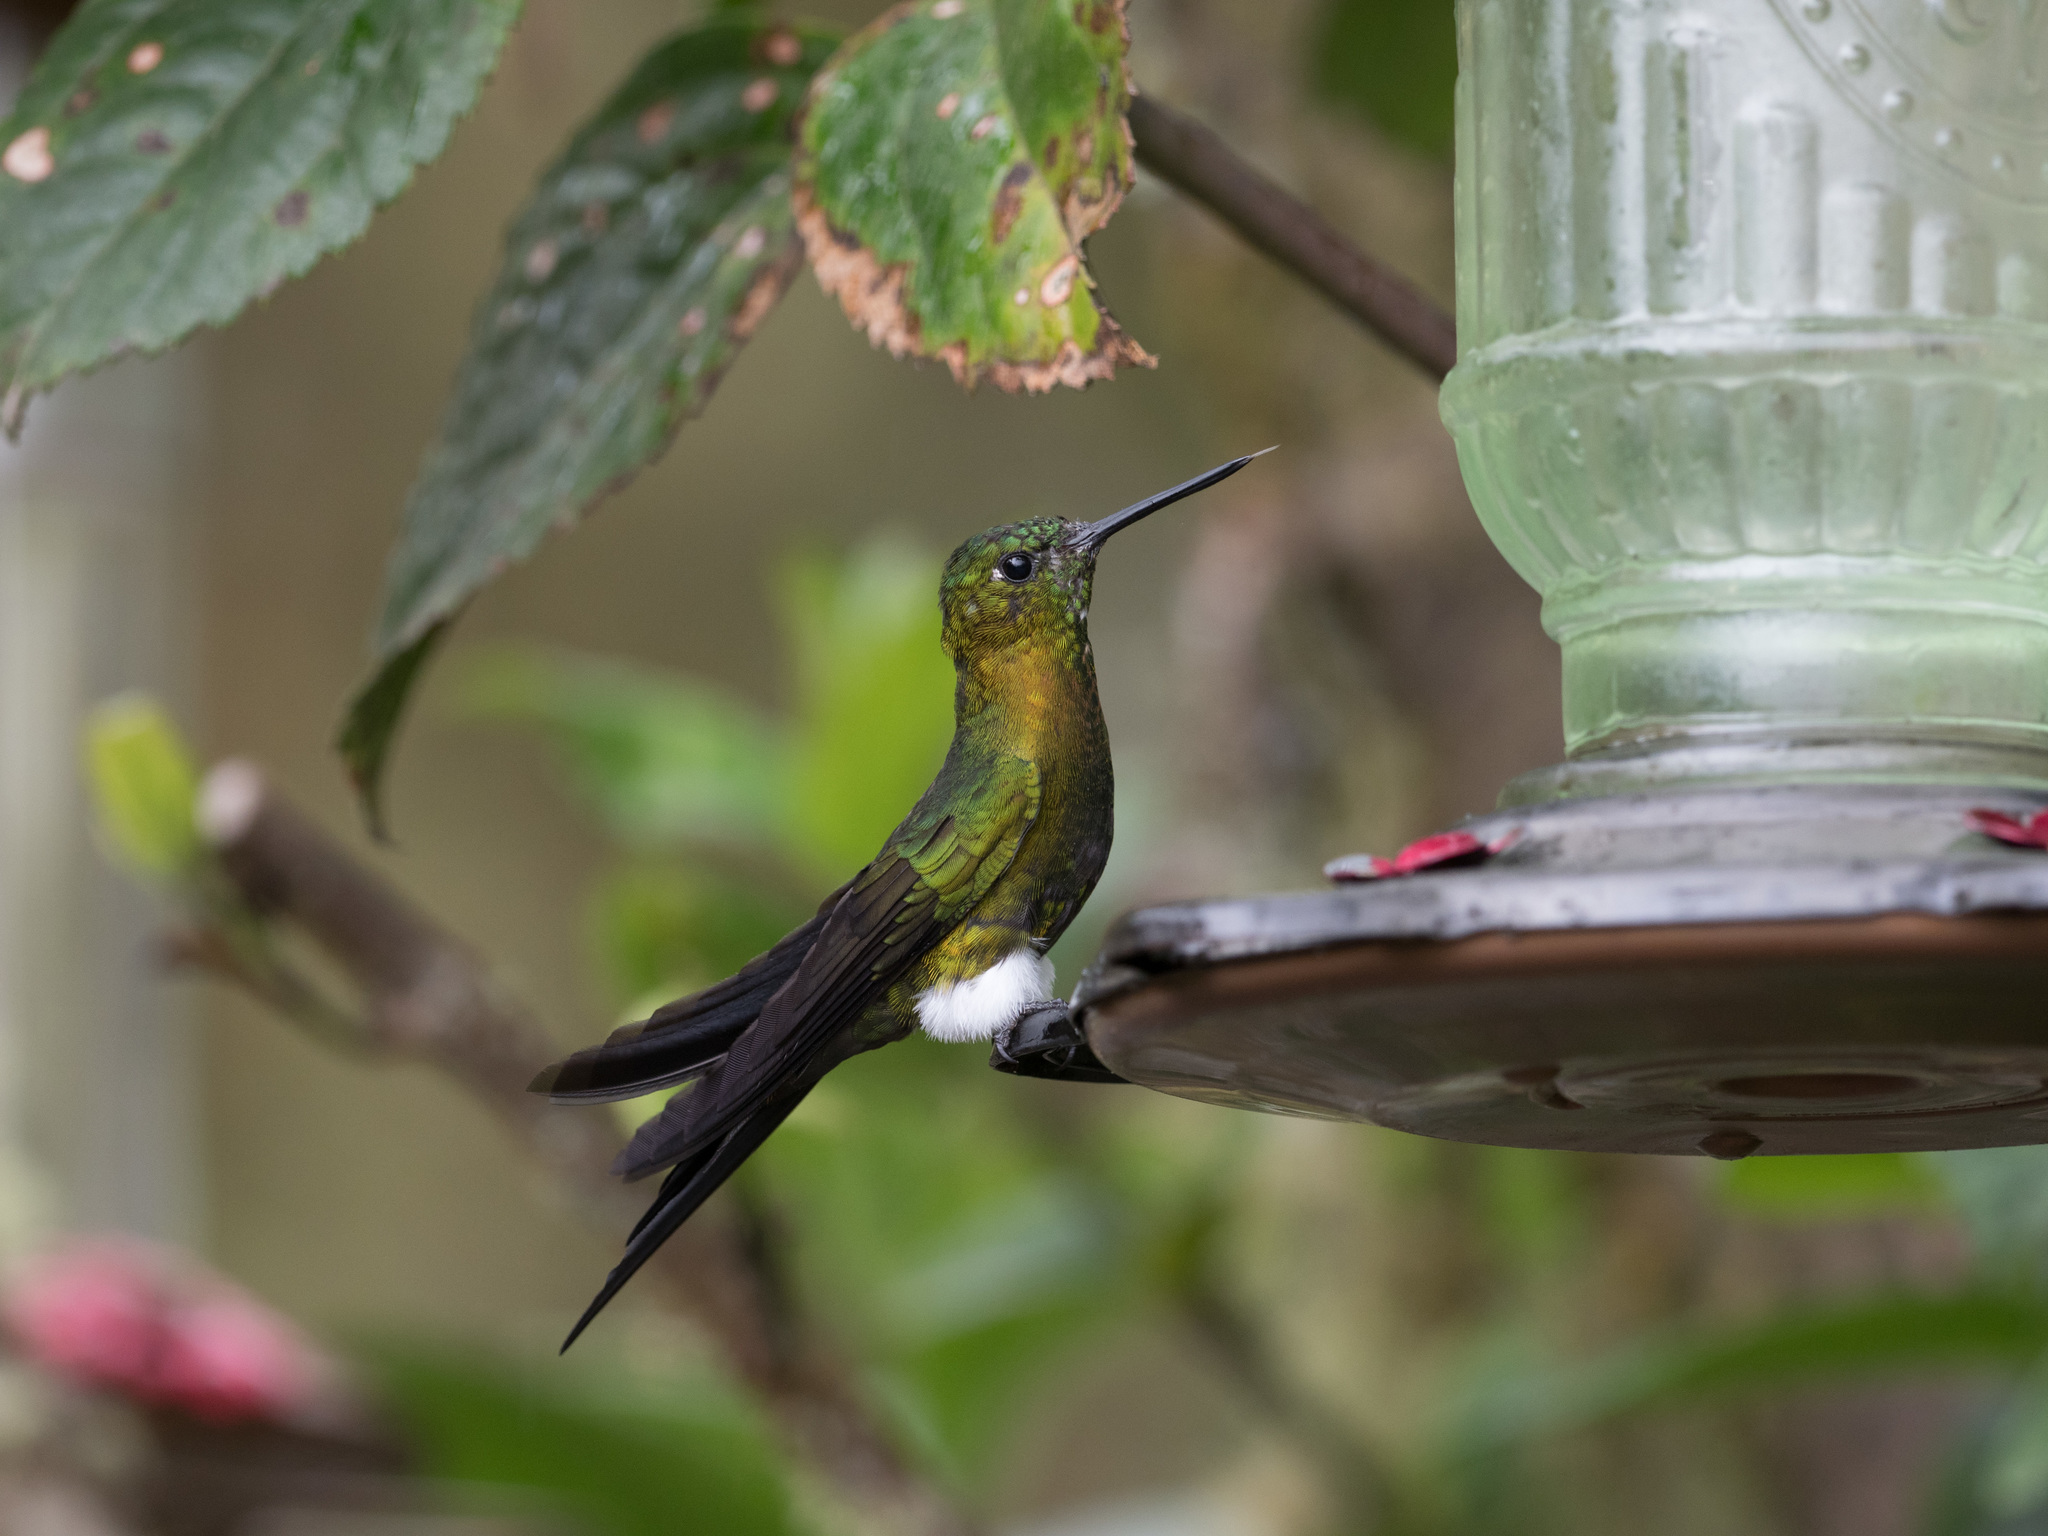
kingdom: Animalia
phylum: Chordata
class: Aves
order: Apodiformes
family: Trochilidae
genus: Eriocnemis
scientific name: Eriocnemis mosquera
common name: Golden-breasted puffleg
